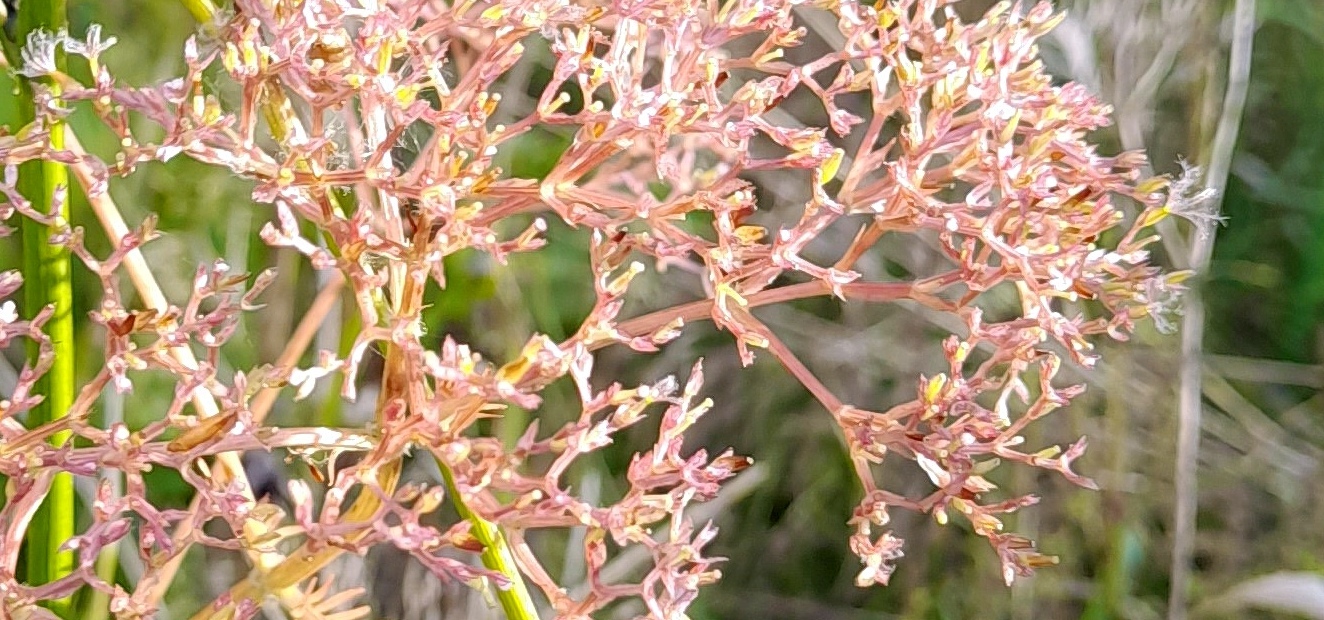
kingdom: Plantae
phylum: Tracheophyta
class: Magnoliopsida
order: Dipsacales
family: Caprifoliaceae
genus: Valeriana
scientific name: Valeriana officinalis
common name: Common valerian
